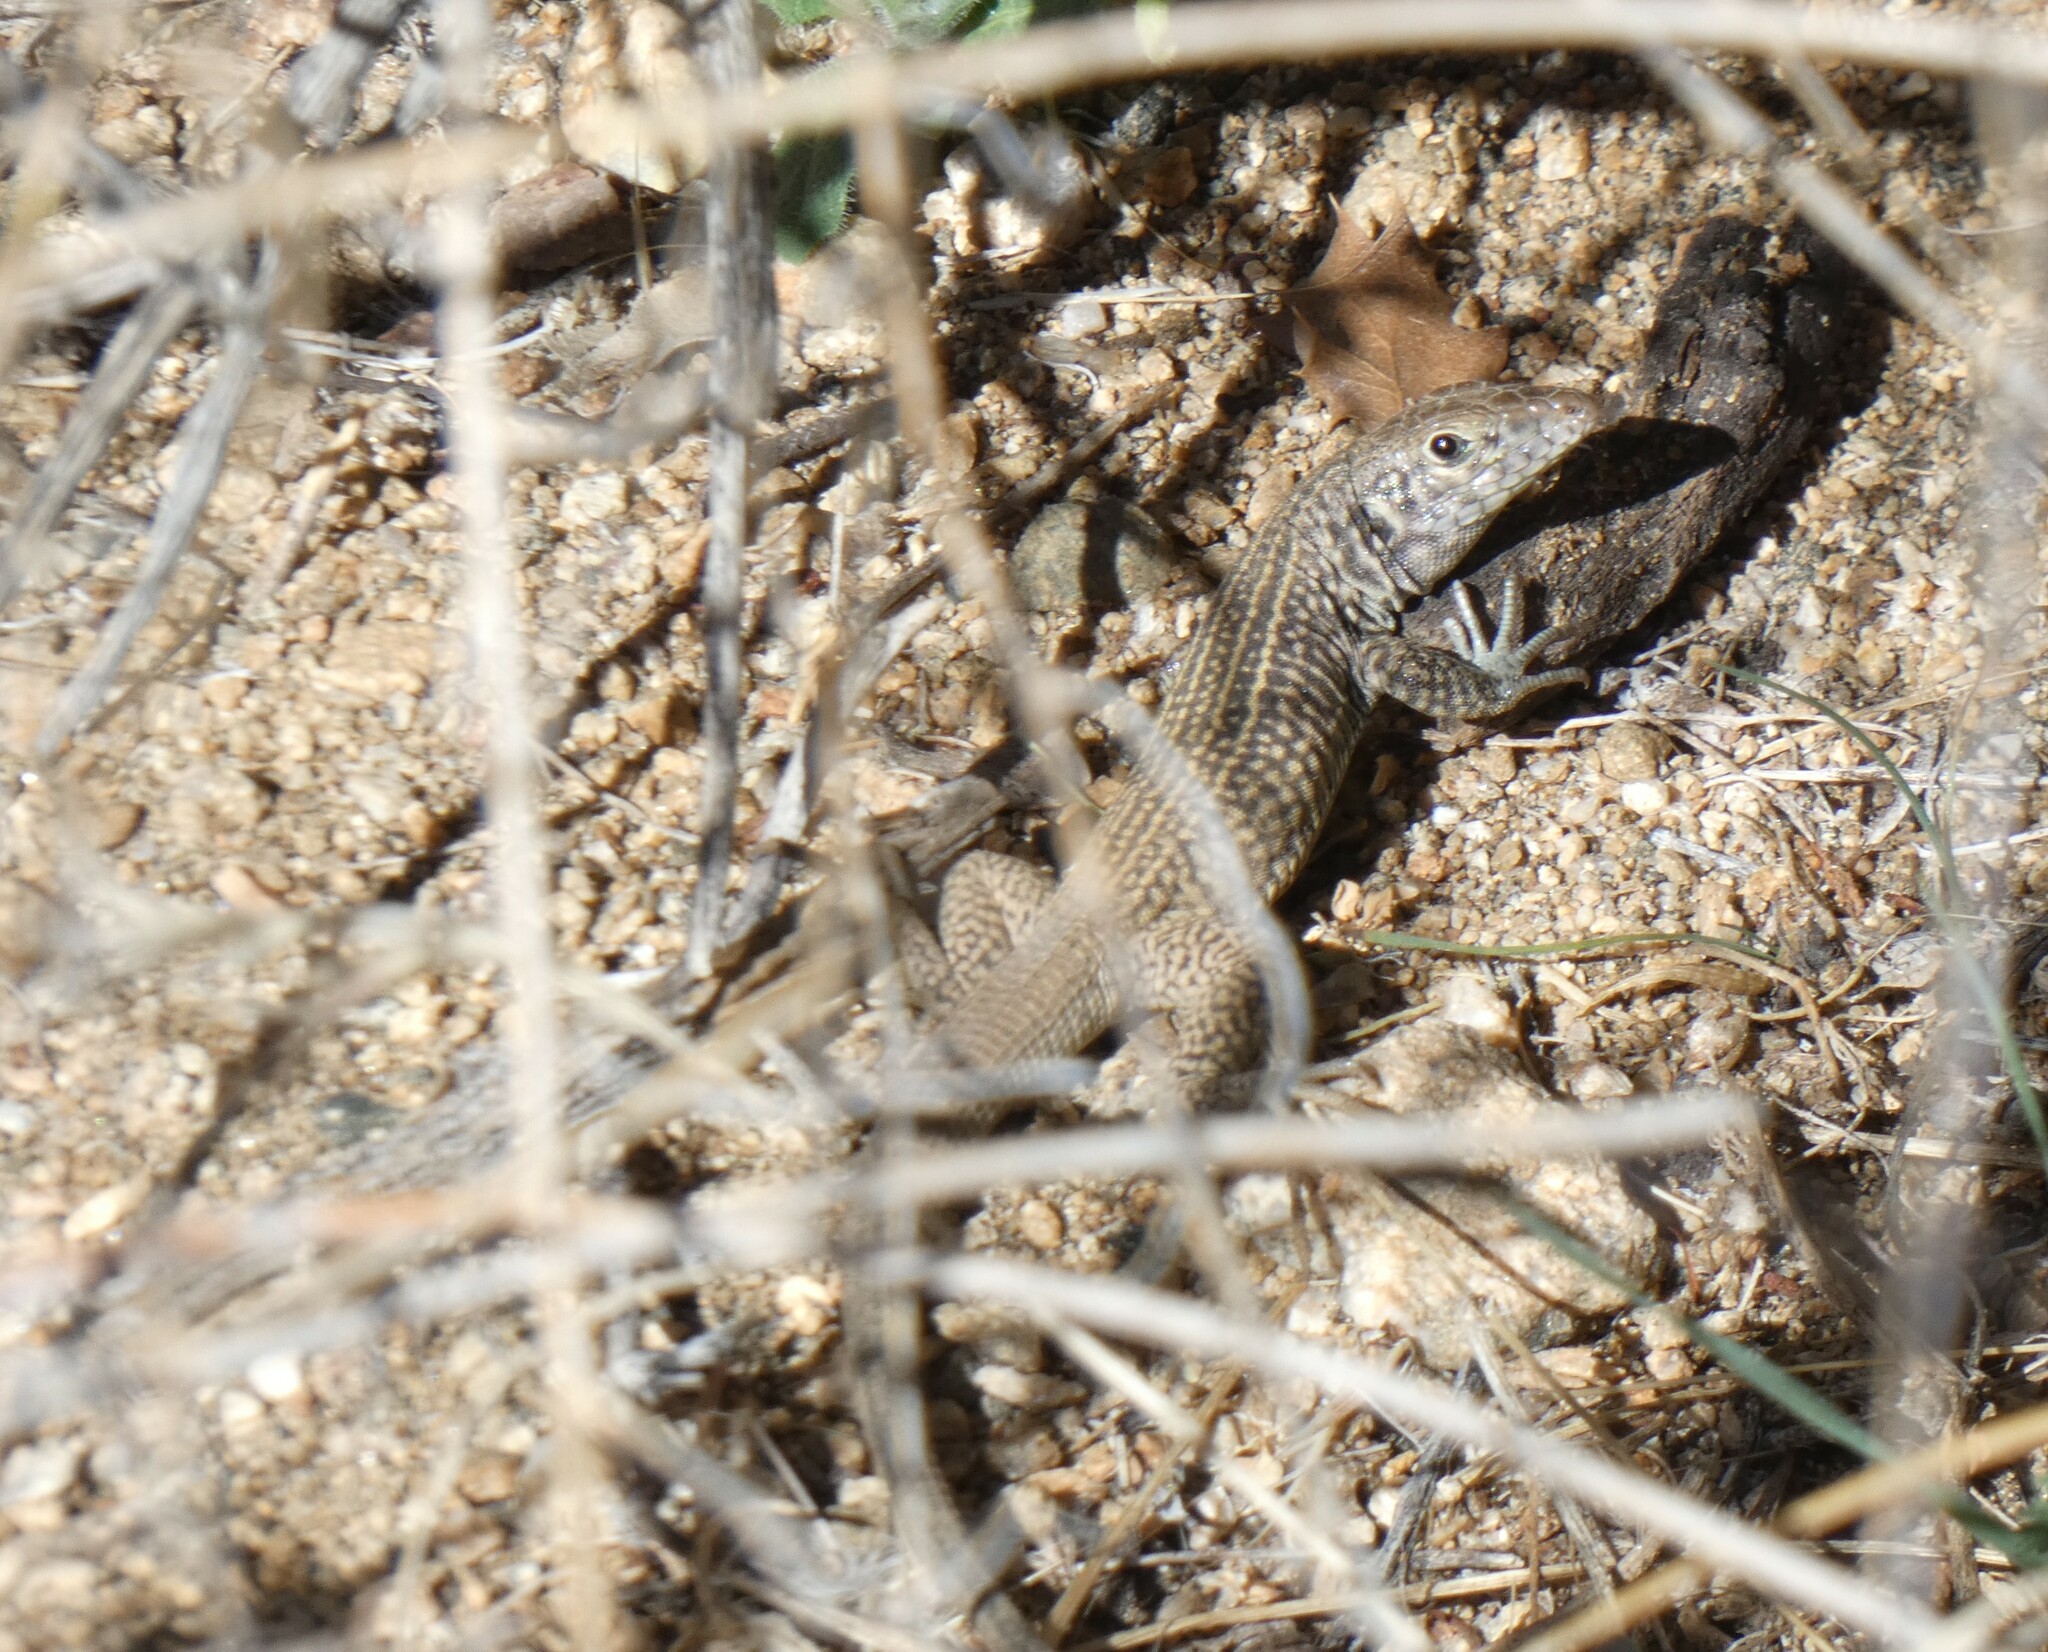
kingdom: Animalia
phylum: Chordata
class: Squamata
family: Teiidae
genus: Aspidoscelis
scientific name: Aspidoscelis tigris
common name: Tiger whiptail
